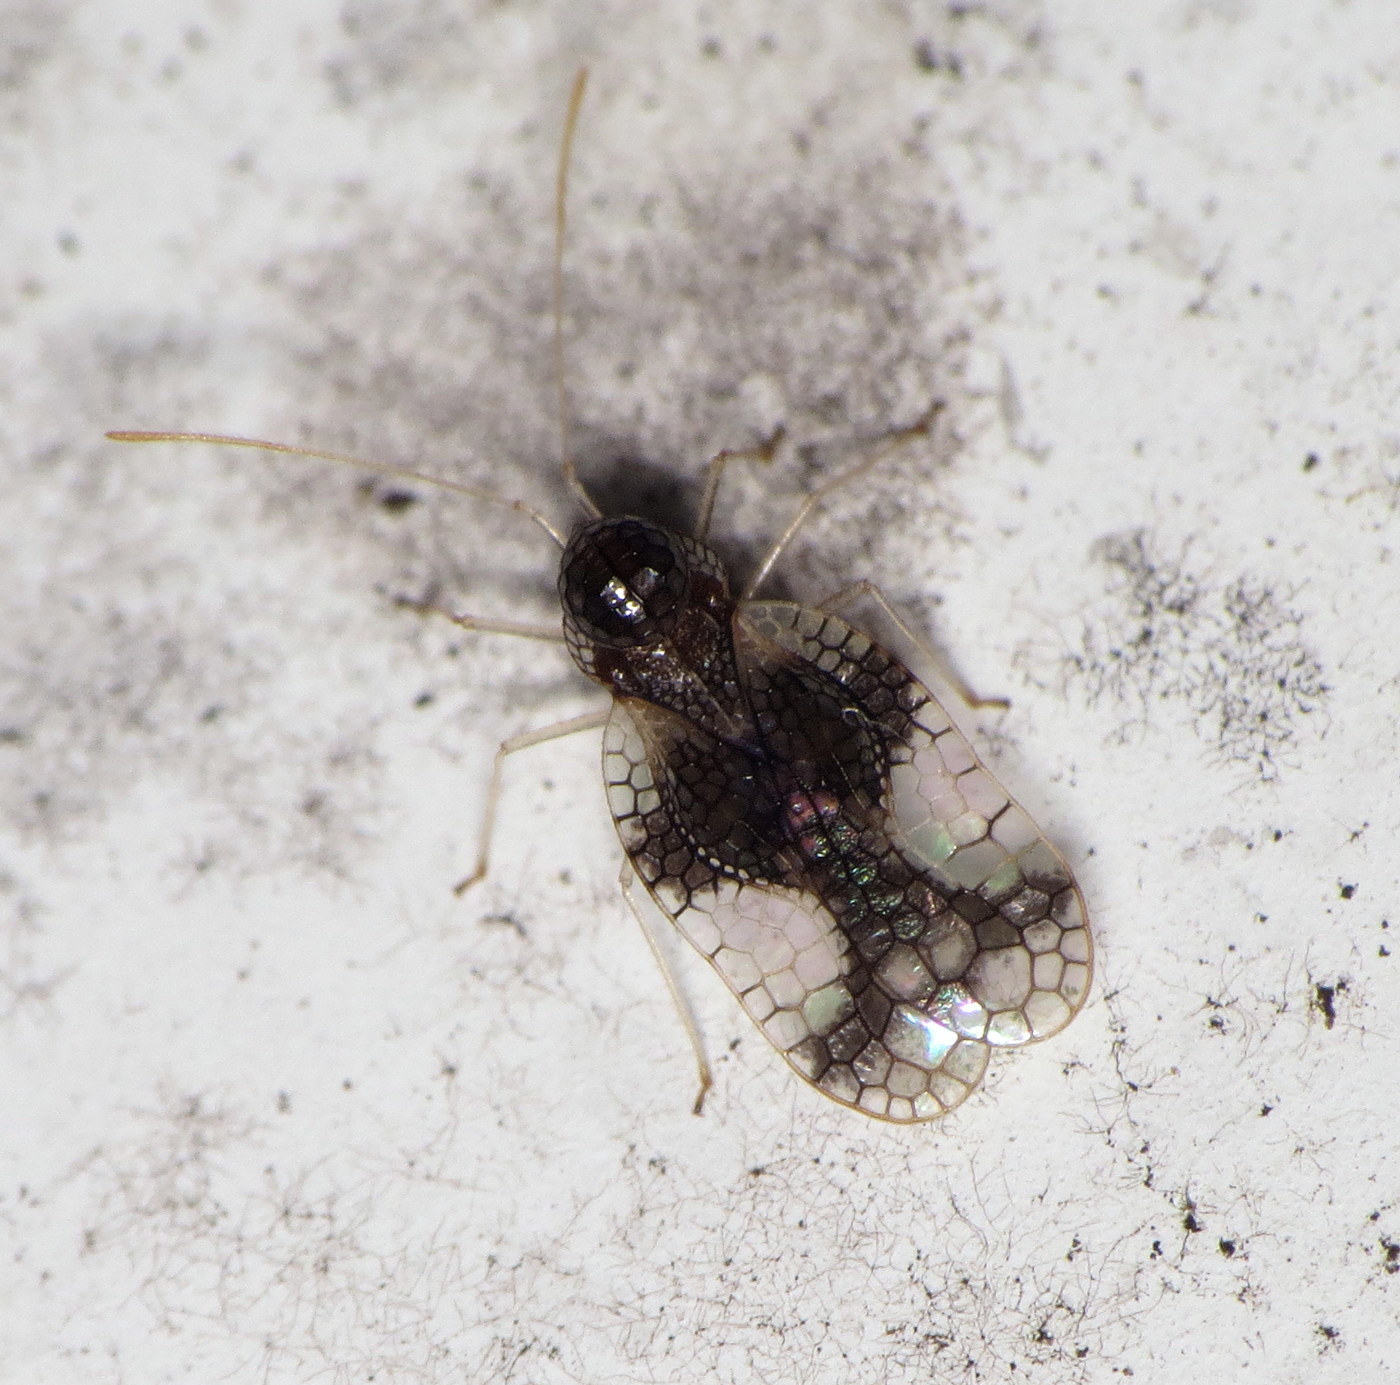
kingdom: Animalia
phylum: Arthropoda
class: Insecta
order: Hemiptera
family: Tingidae
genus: Stephanitis
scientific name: Stephanitis takeyai
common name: Andromeda lacebug
